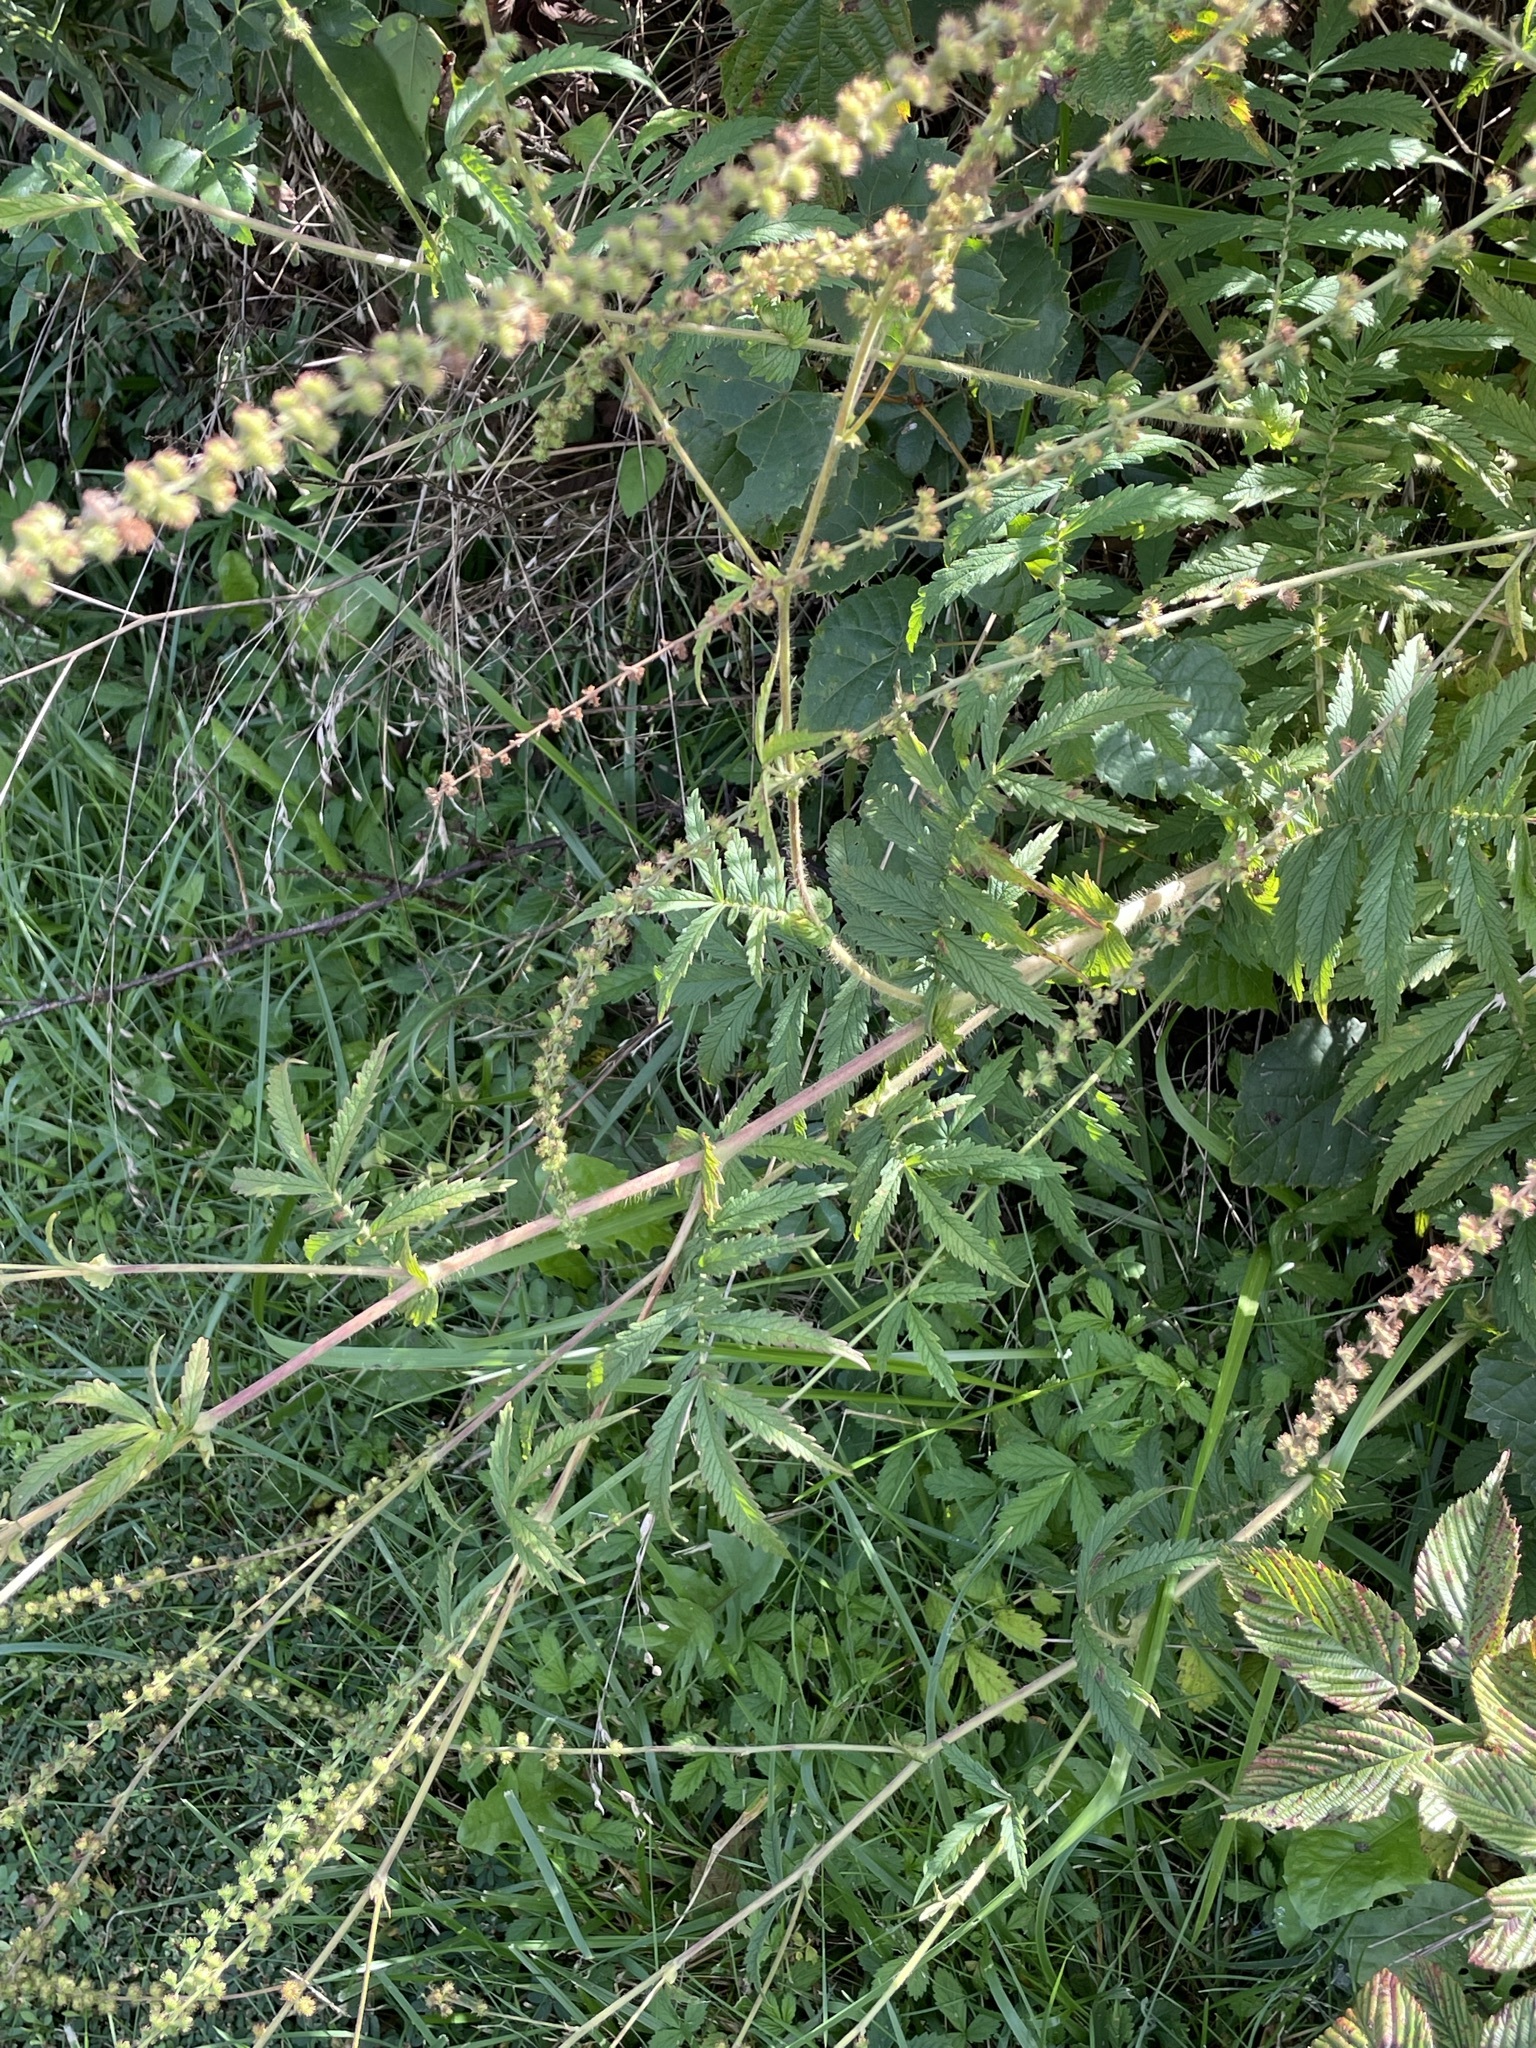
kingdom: Plantae
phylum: Tracheophyta
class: Magnoliopsida
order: Rosales
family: Rosaceae
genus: Agrimonia
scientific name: Agrimonia parviflora
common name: Harvest-lice
